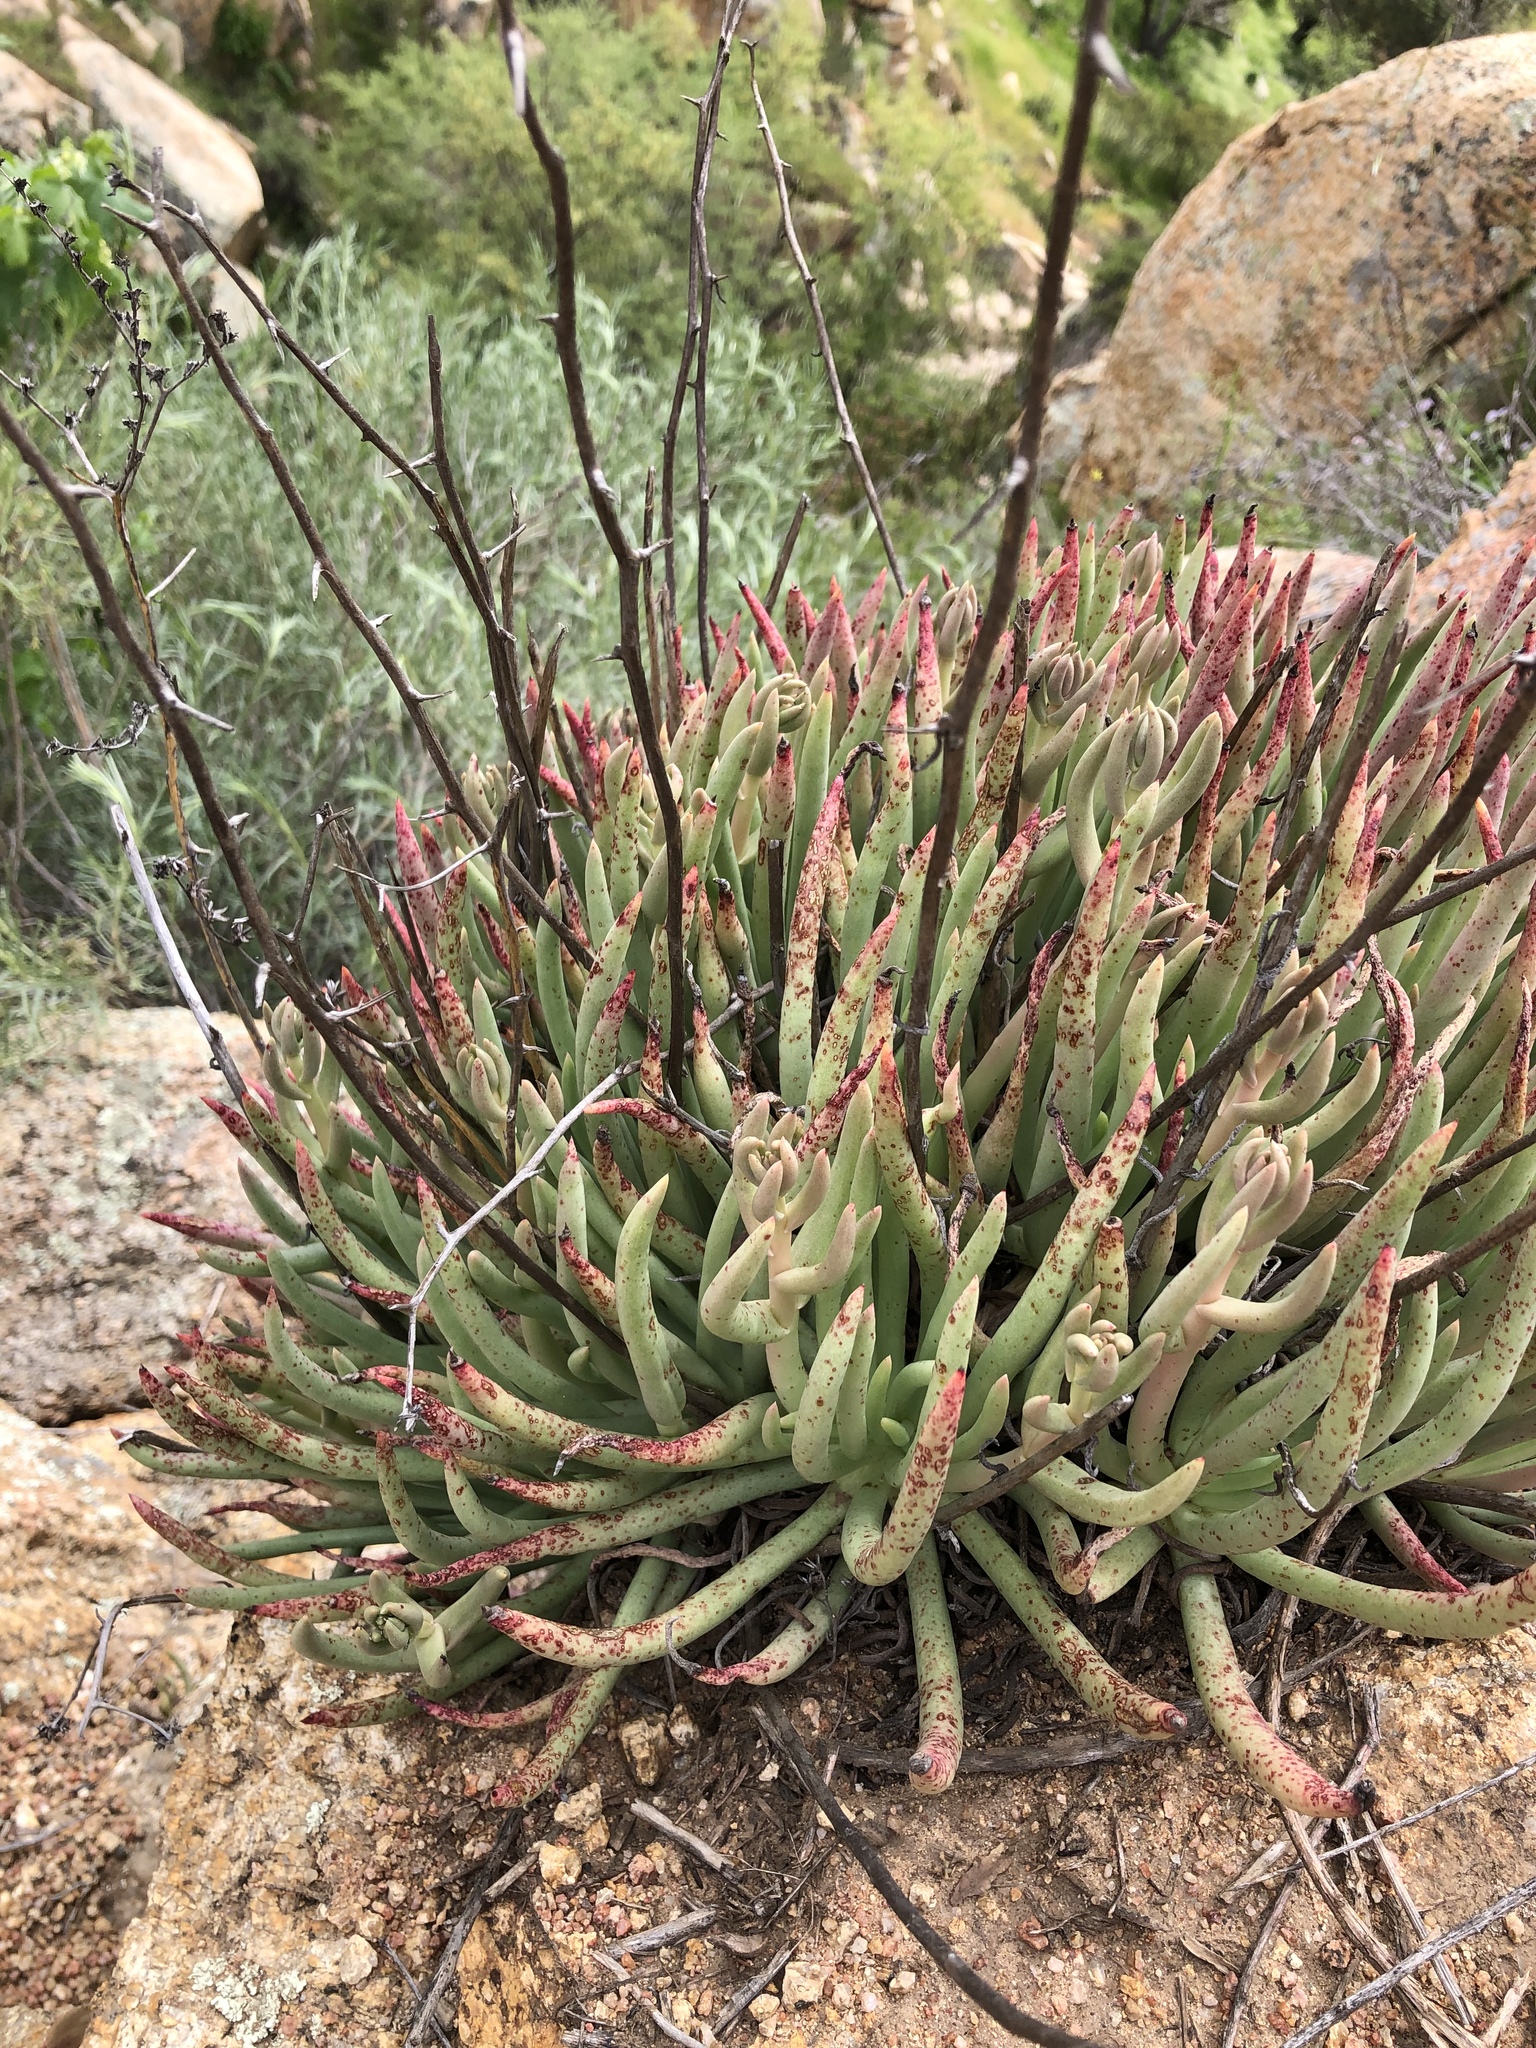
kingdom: Plantae
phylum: Tracheophyta
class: Magnoliopsida
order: Saxifragales
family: Crassulaceae
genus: Dudleya
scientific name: Dudleya edulis
